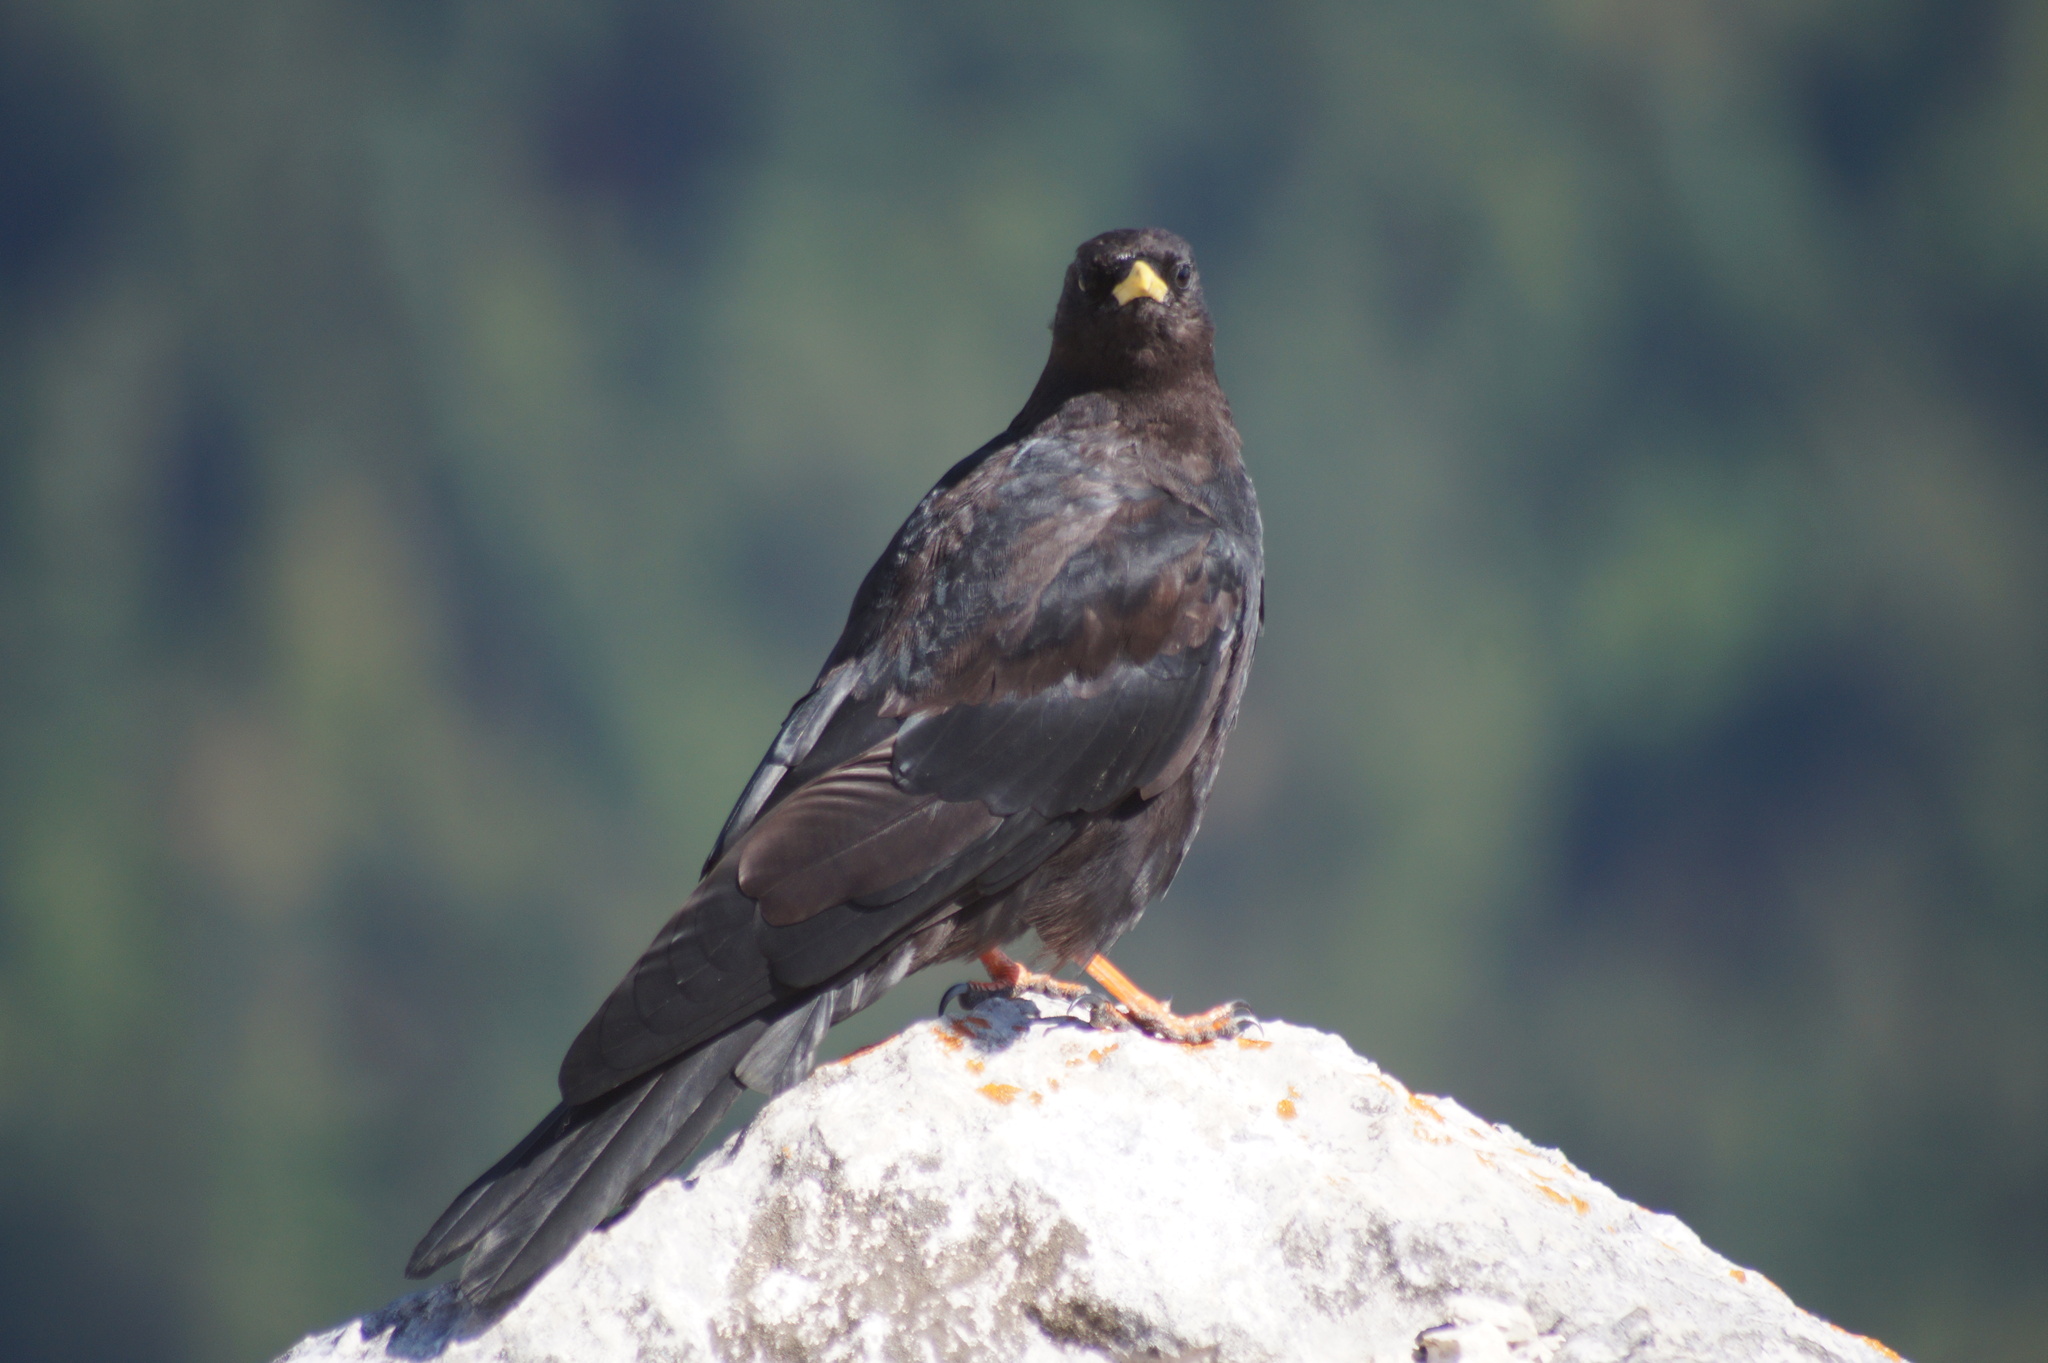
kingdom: Animalia
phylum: Chordata
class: Aves
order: Passeriformes
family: Corvidae
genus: Pyrrhocorax
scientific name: Pyrrhocorax graculus
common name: Alpine chough
